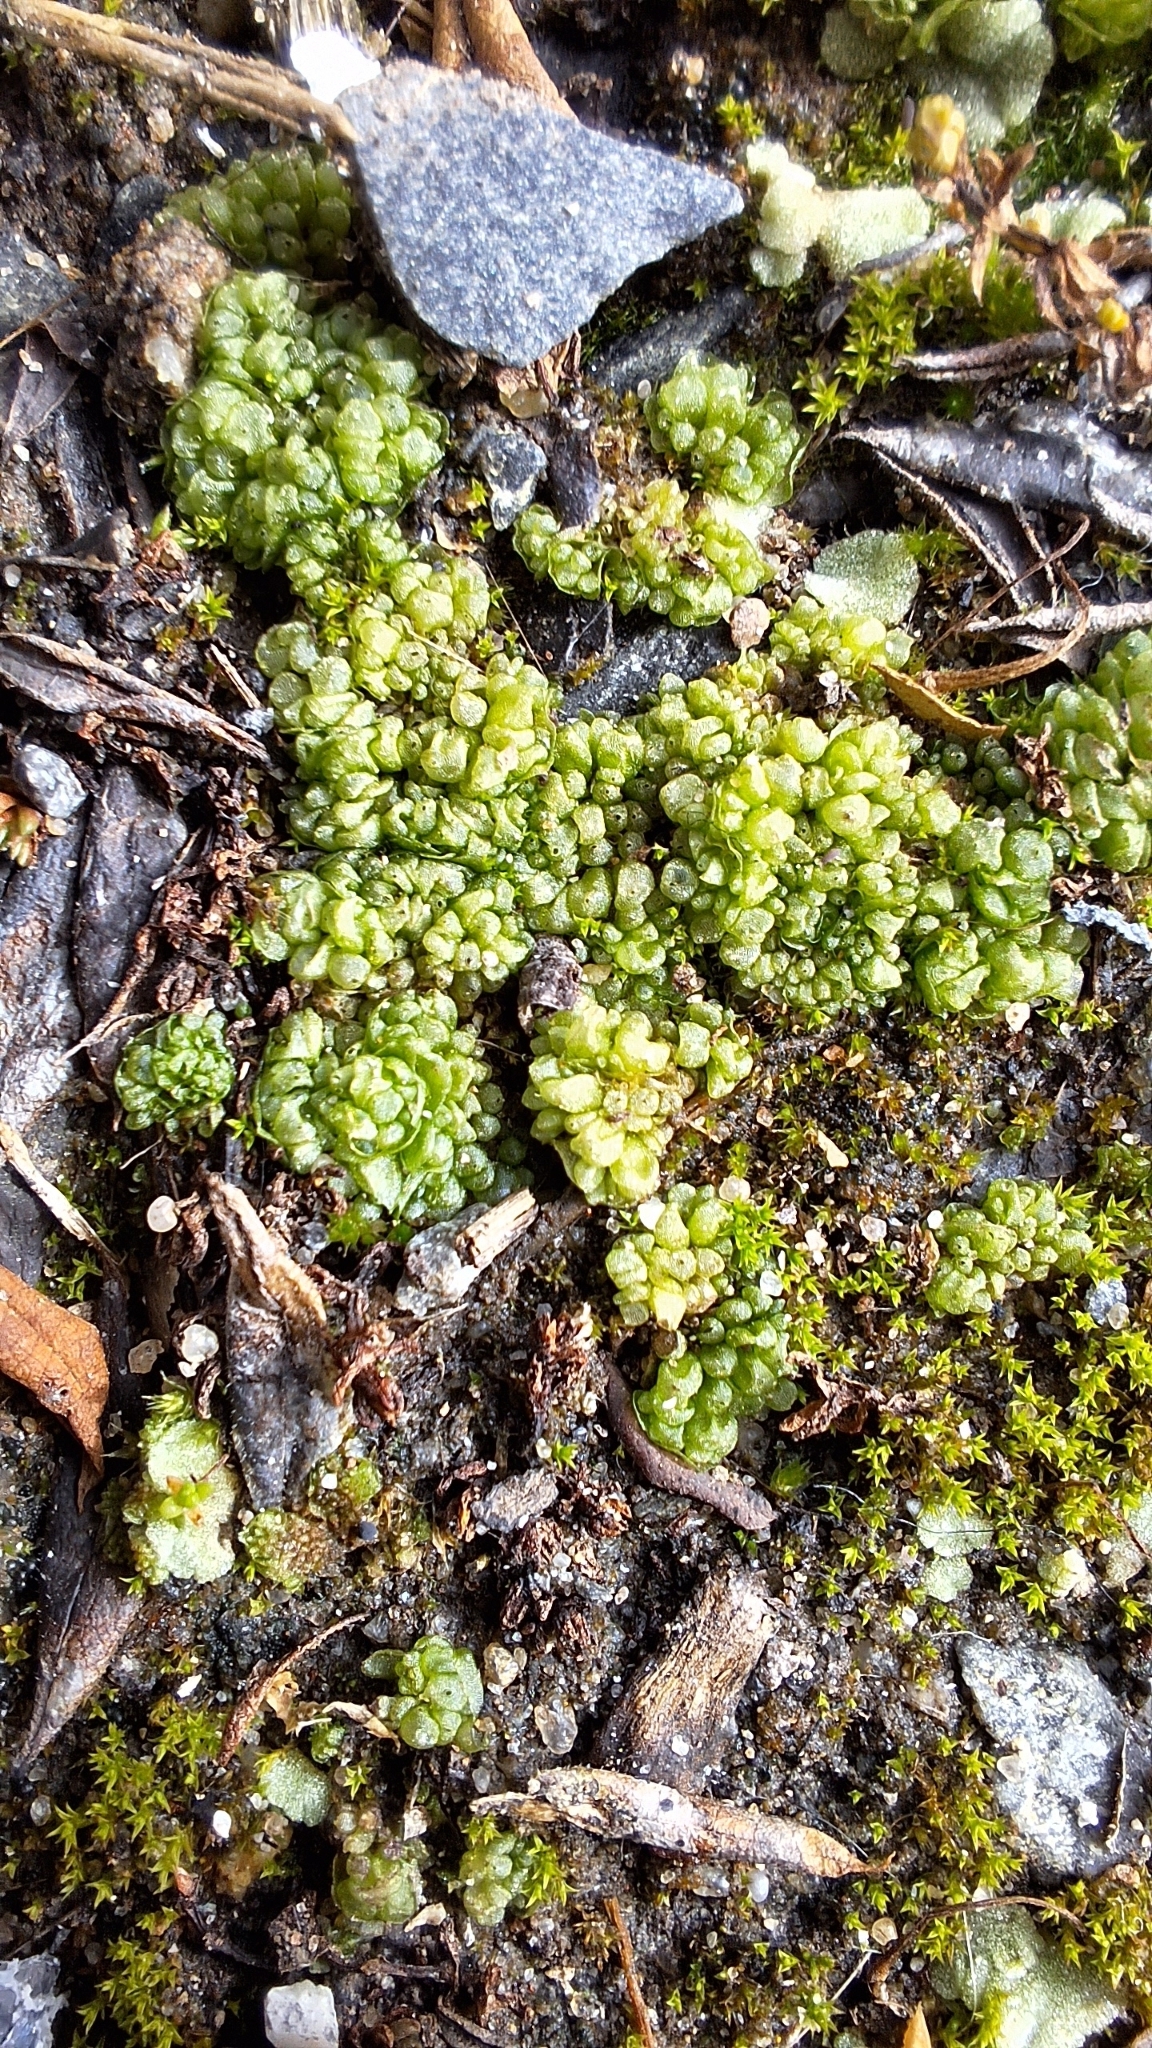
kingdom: Plantae
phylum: Marchantiophyta
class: Marchantiopsida
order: Sphaerocarpales
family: Sphaerocarpaceae
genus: Sphaerocarpos
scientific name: Sphaerocarpos texanus
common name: Texas balloonwort
